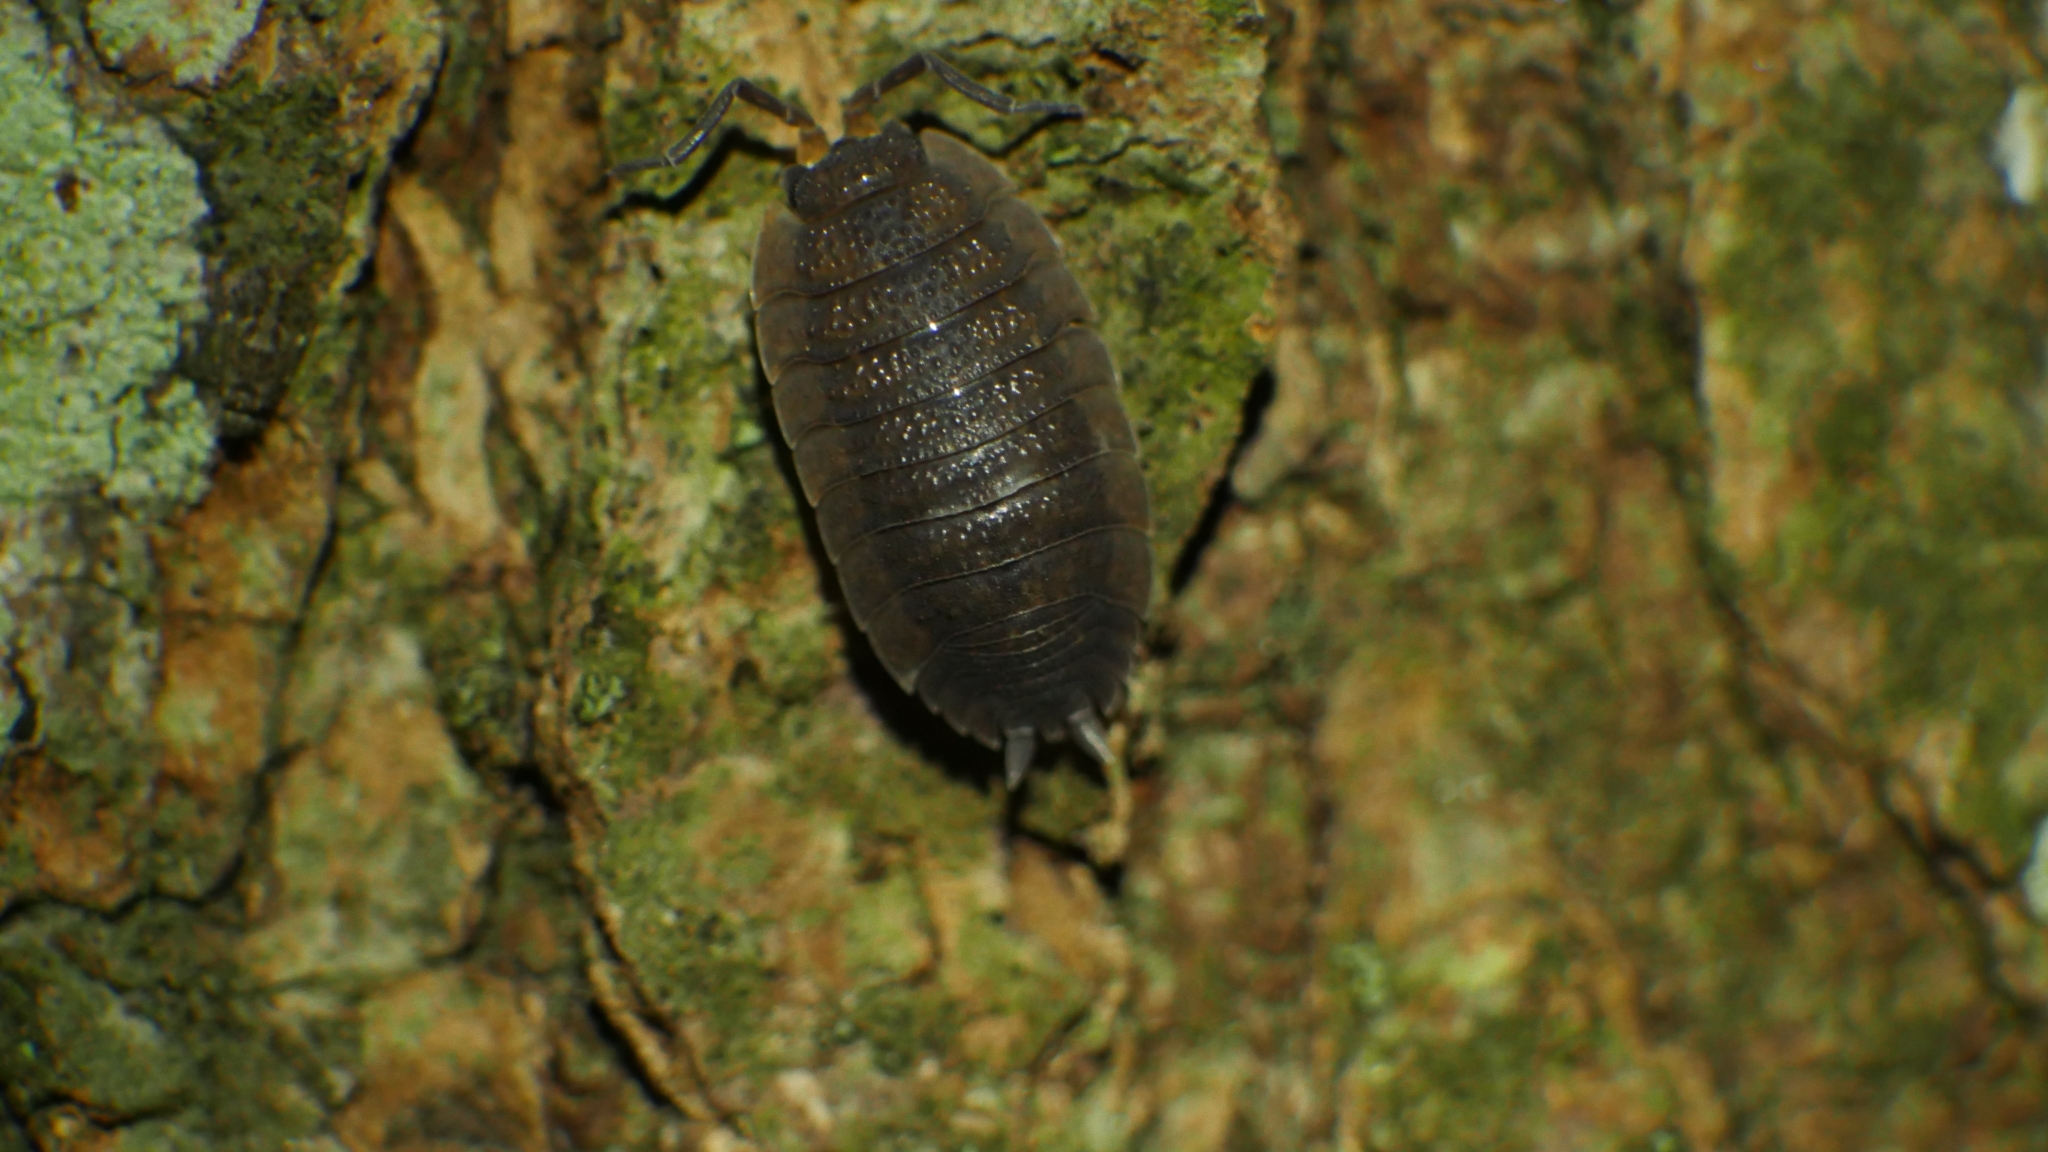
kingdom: Animalia
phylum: Arthropoda
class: Malacostraca
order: Isopoda
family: Porcellionidae
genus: Porcellio
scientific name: Porcellio scaber
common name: Common rough woodlouse
